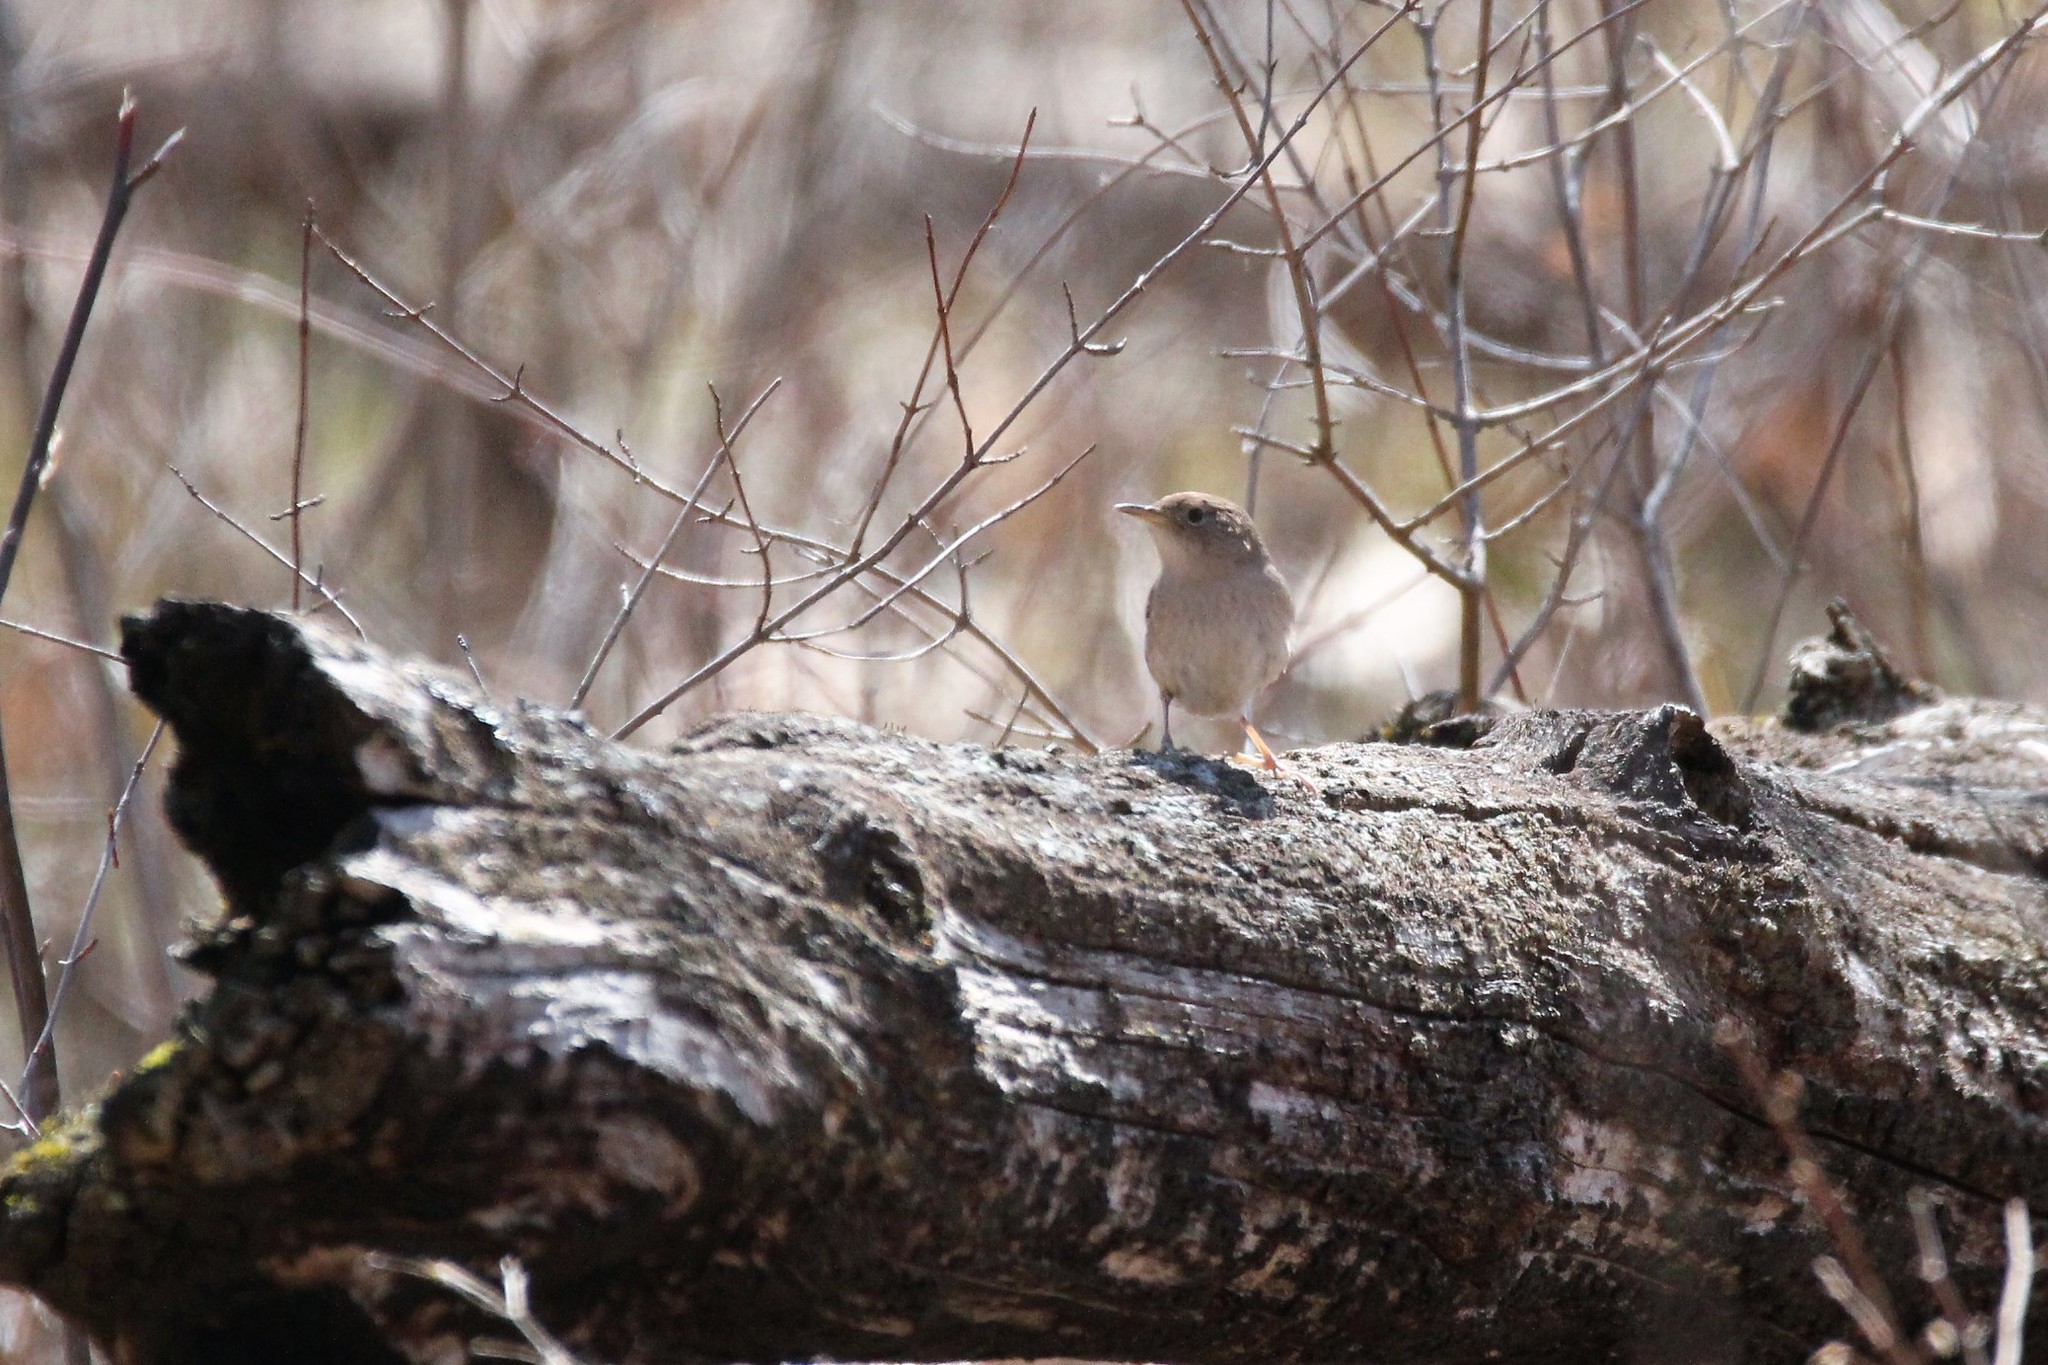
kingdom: Animalia
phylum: Chordata
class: Aves
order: Passeriformes
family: Troglodytidae
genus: Troglodytes
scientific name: Troglodytes aedon
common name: House wren
